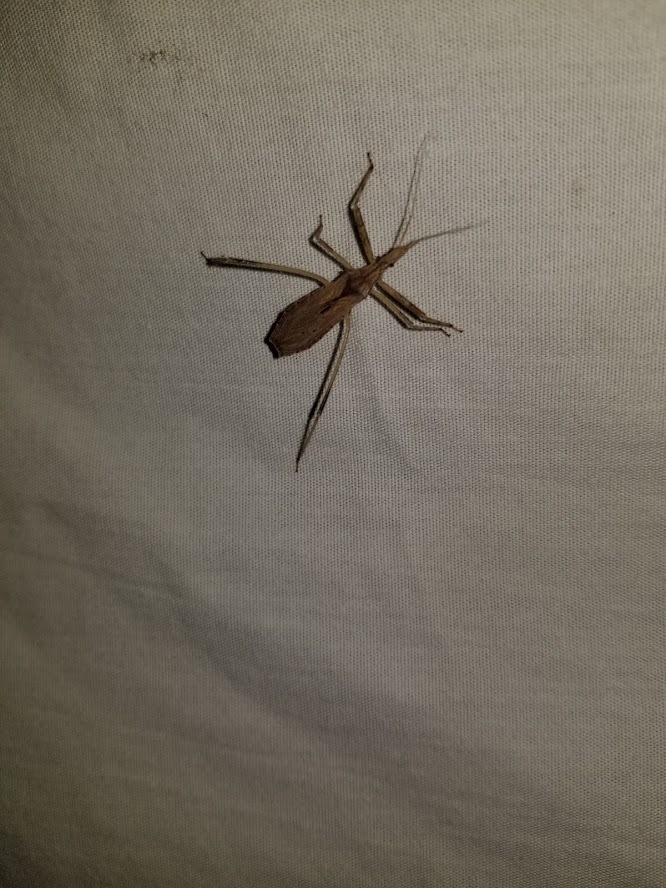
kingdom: Animalia
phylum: Arthropoda
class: Insecta
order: Hemiptera
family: Reduviidae
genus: Stenopoda
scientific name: Stenopoda spinulosa
